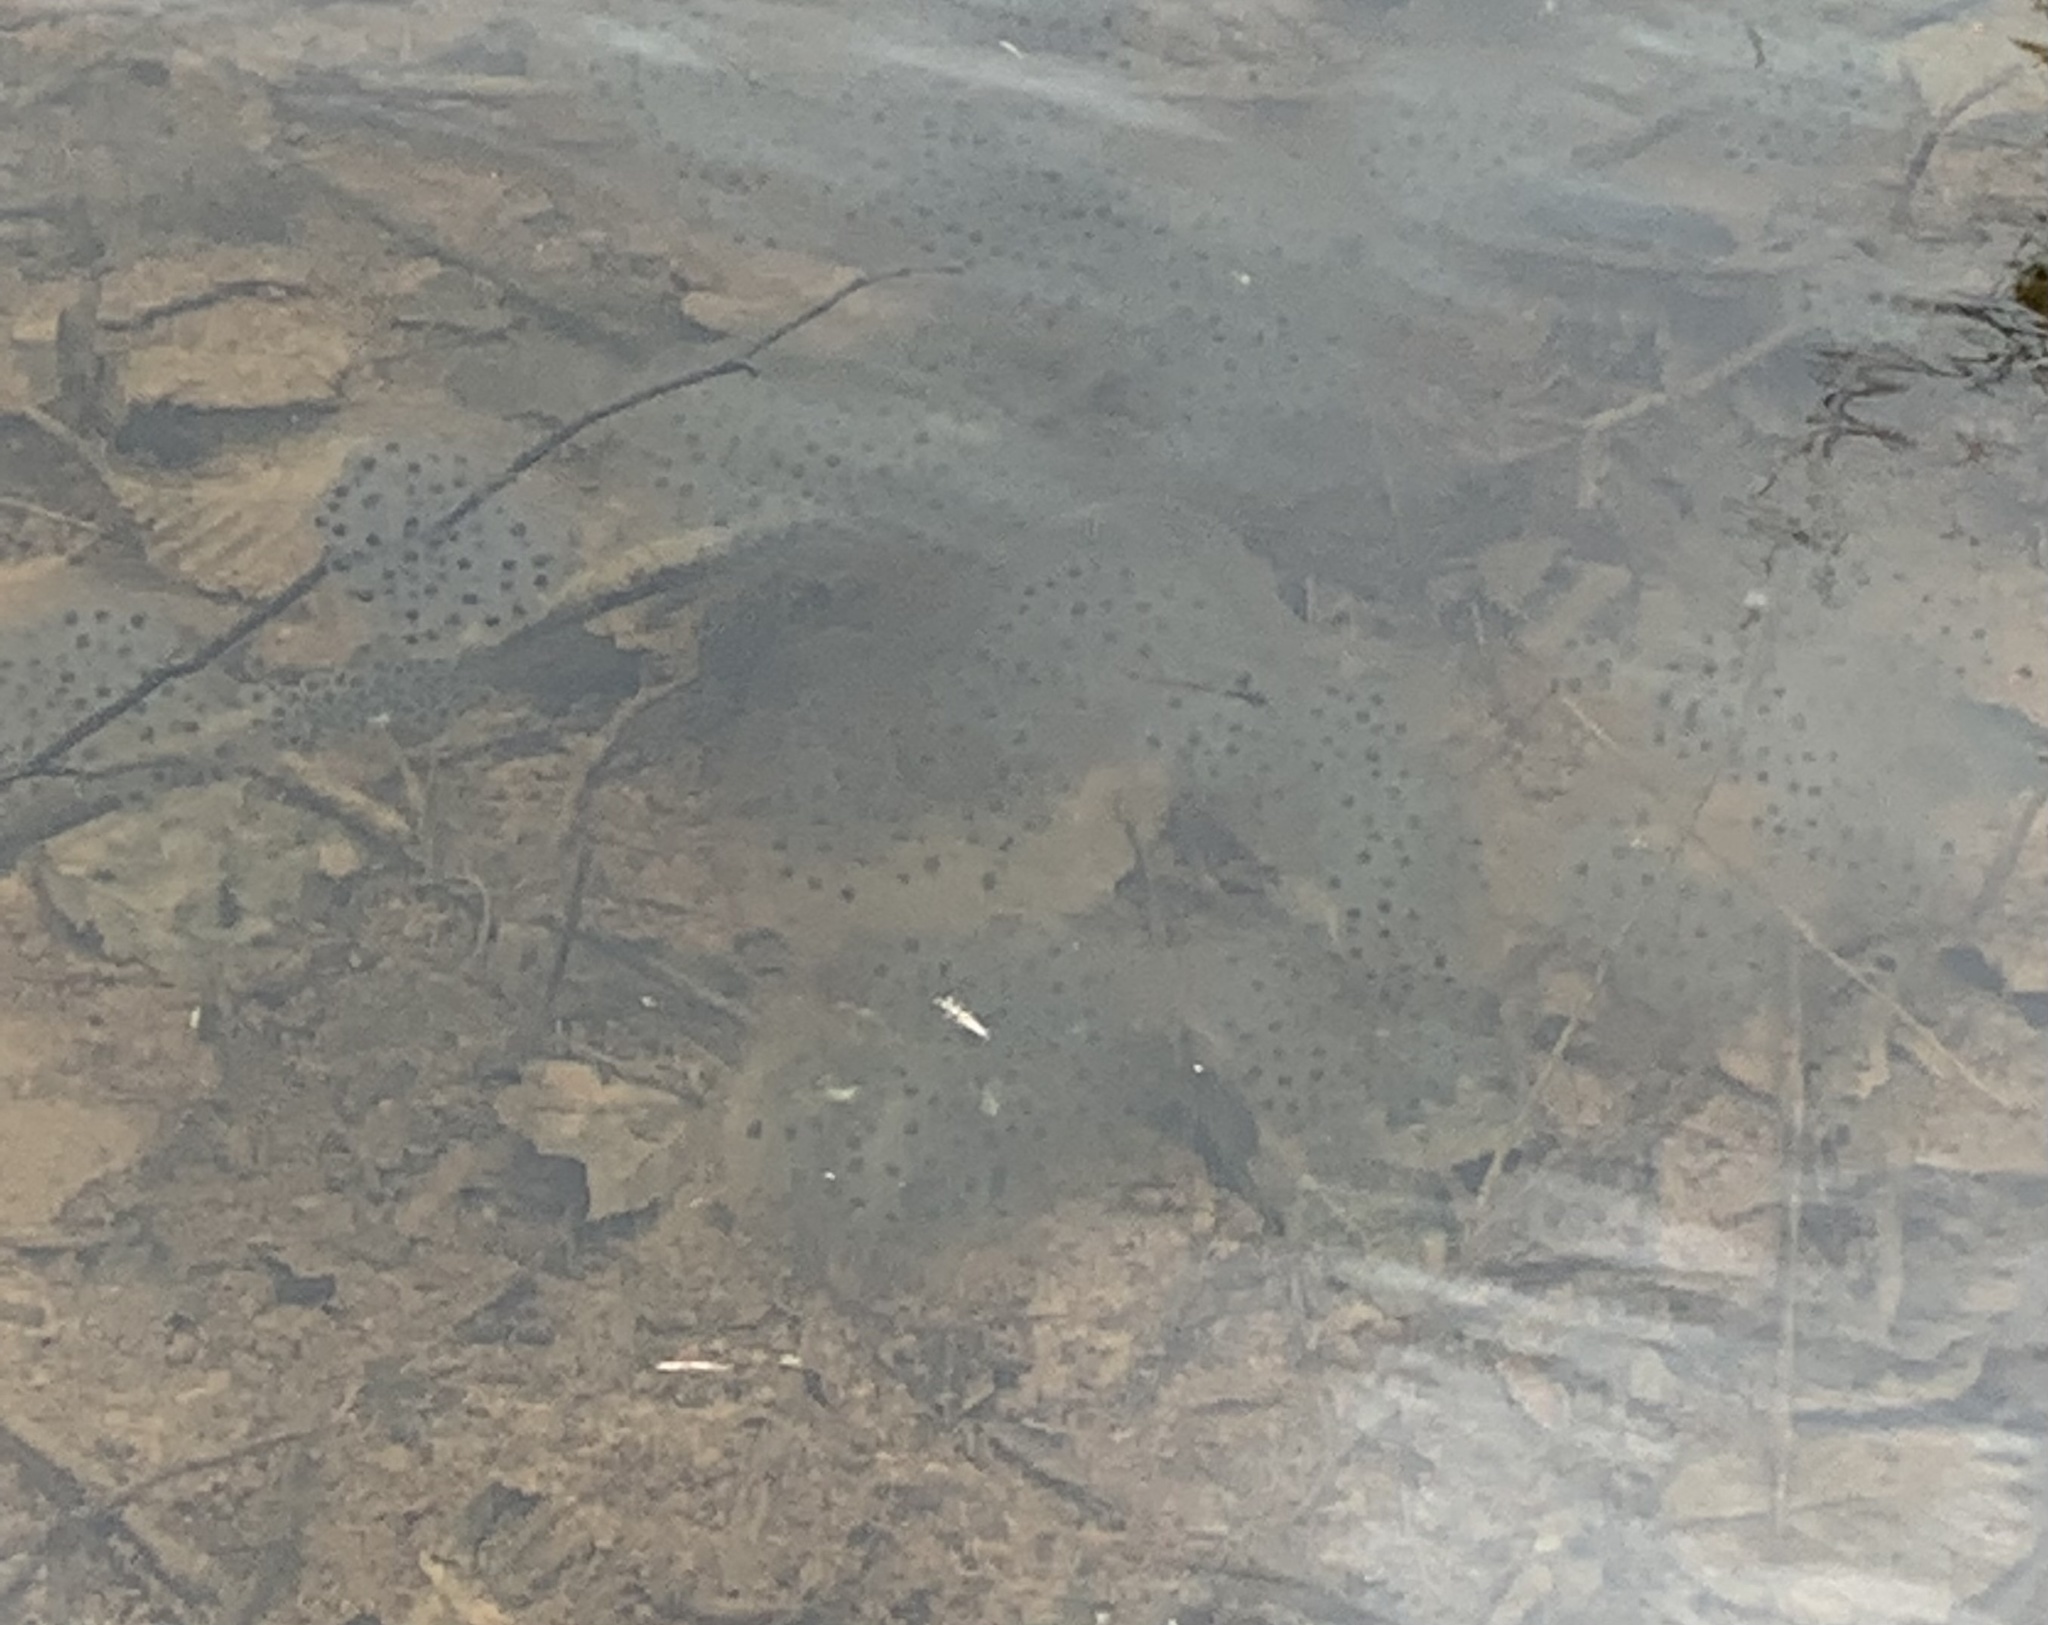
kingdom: Animalia
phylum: Chordata
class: Amphibia
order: Caudata
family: Ambystomatidae
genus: Ambystoma
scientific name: Ambystoma
